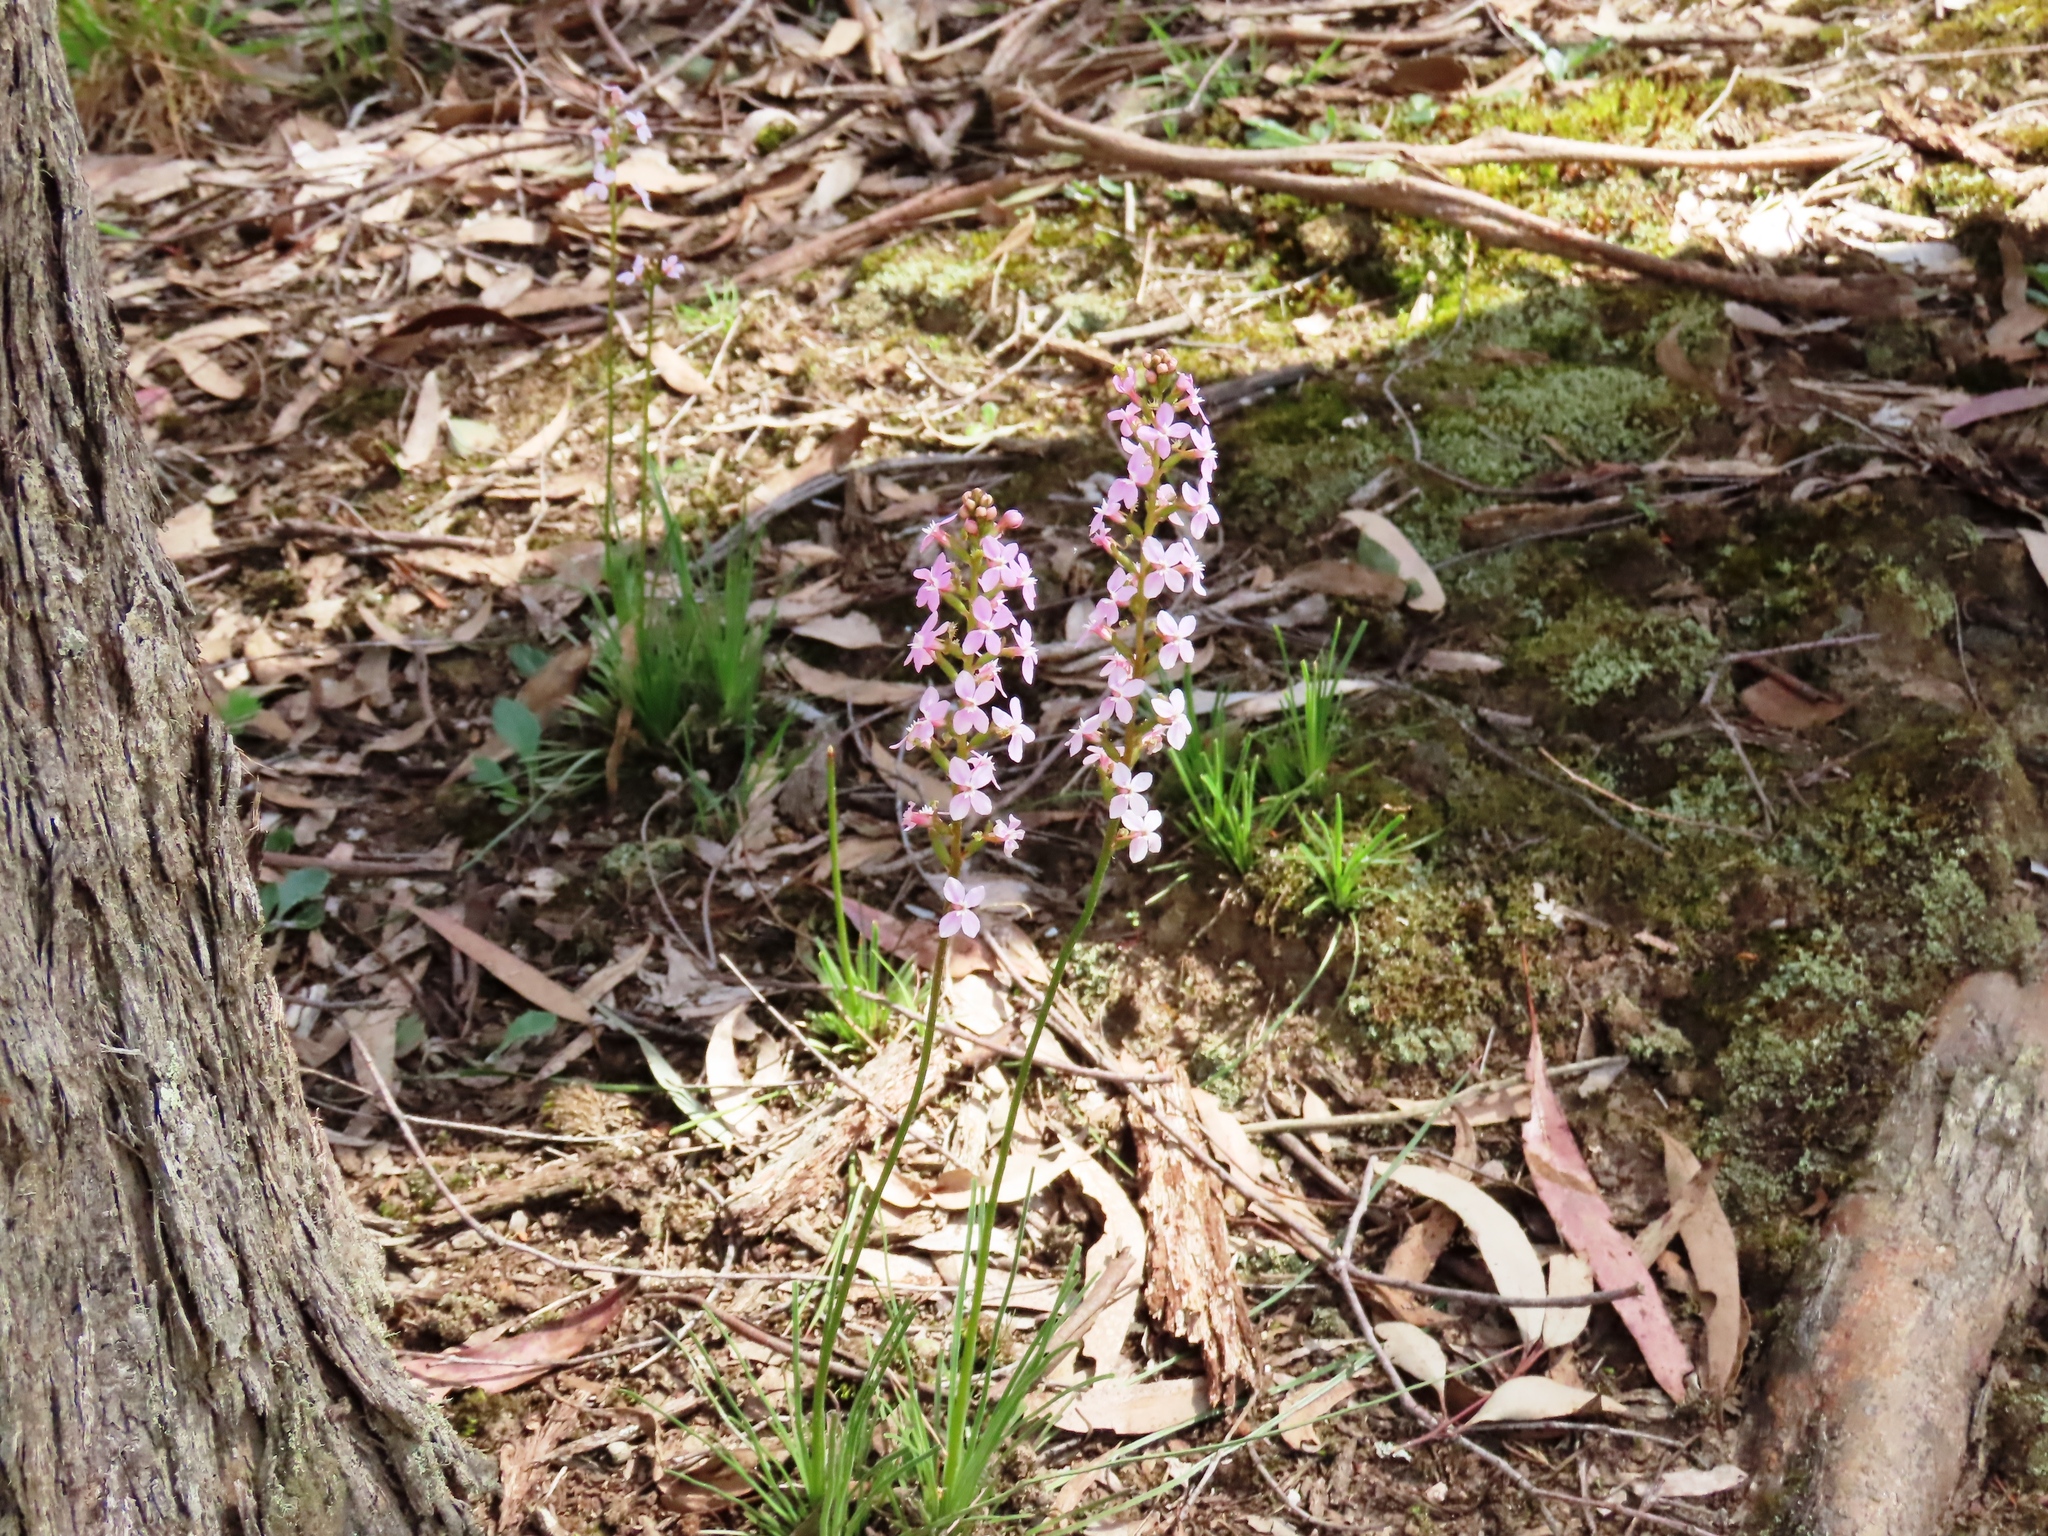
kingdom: Plantae
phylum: Tracheophyta
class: Magnoliopsida
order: Asterales
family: Stylidiaceae
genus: Stylidium
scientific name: Stylidium graminifolium
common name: Grass triggerplant
